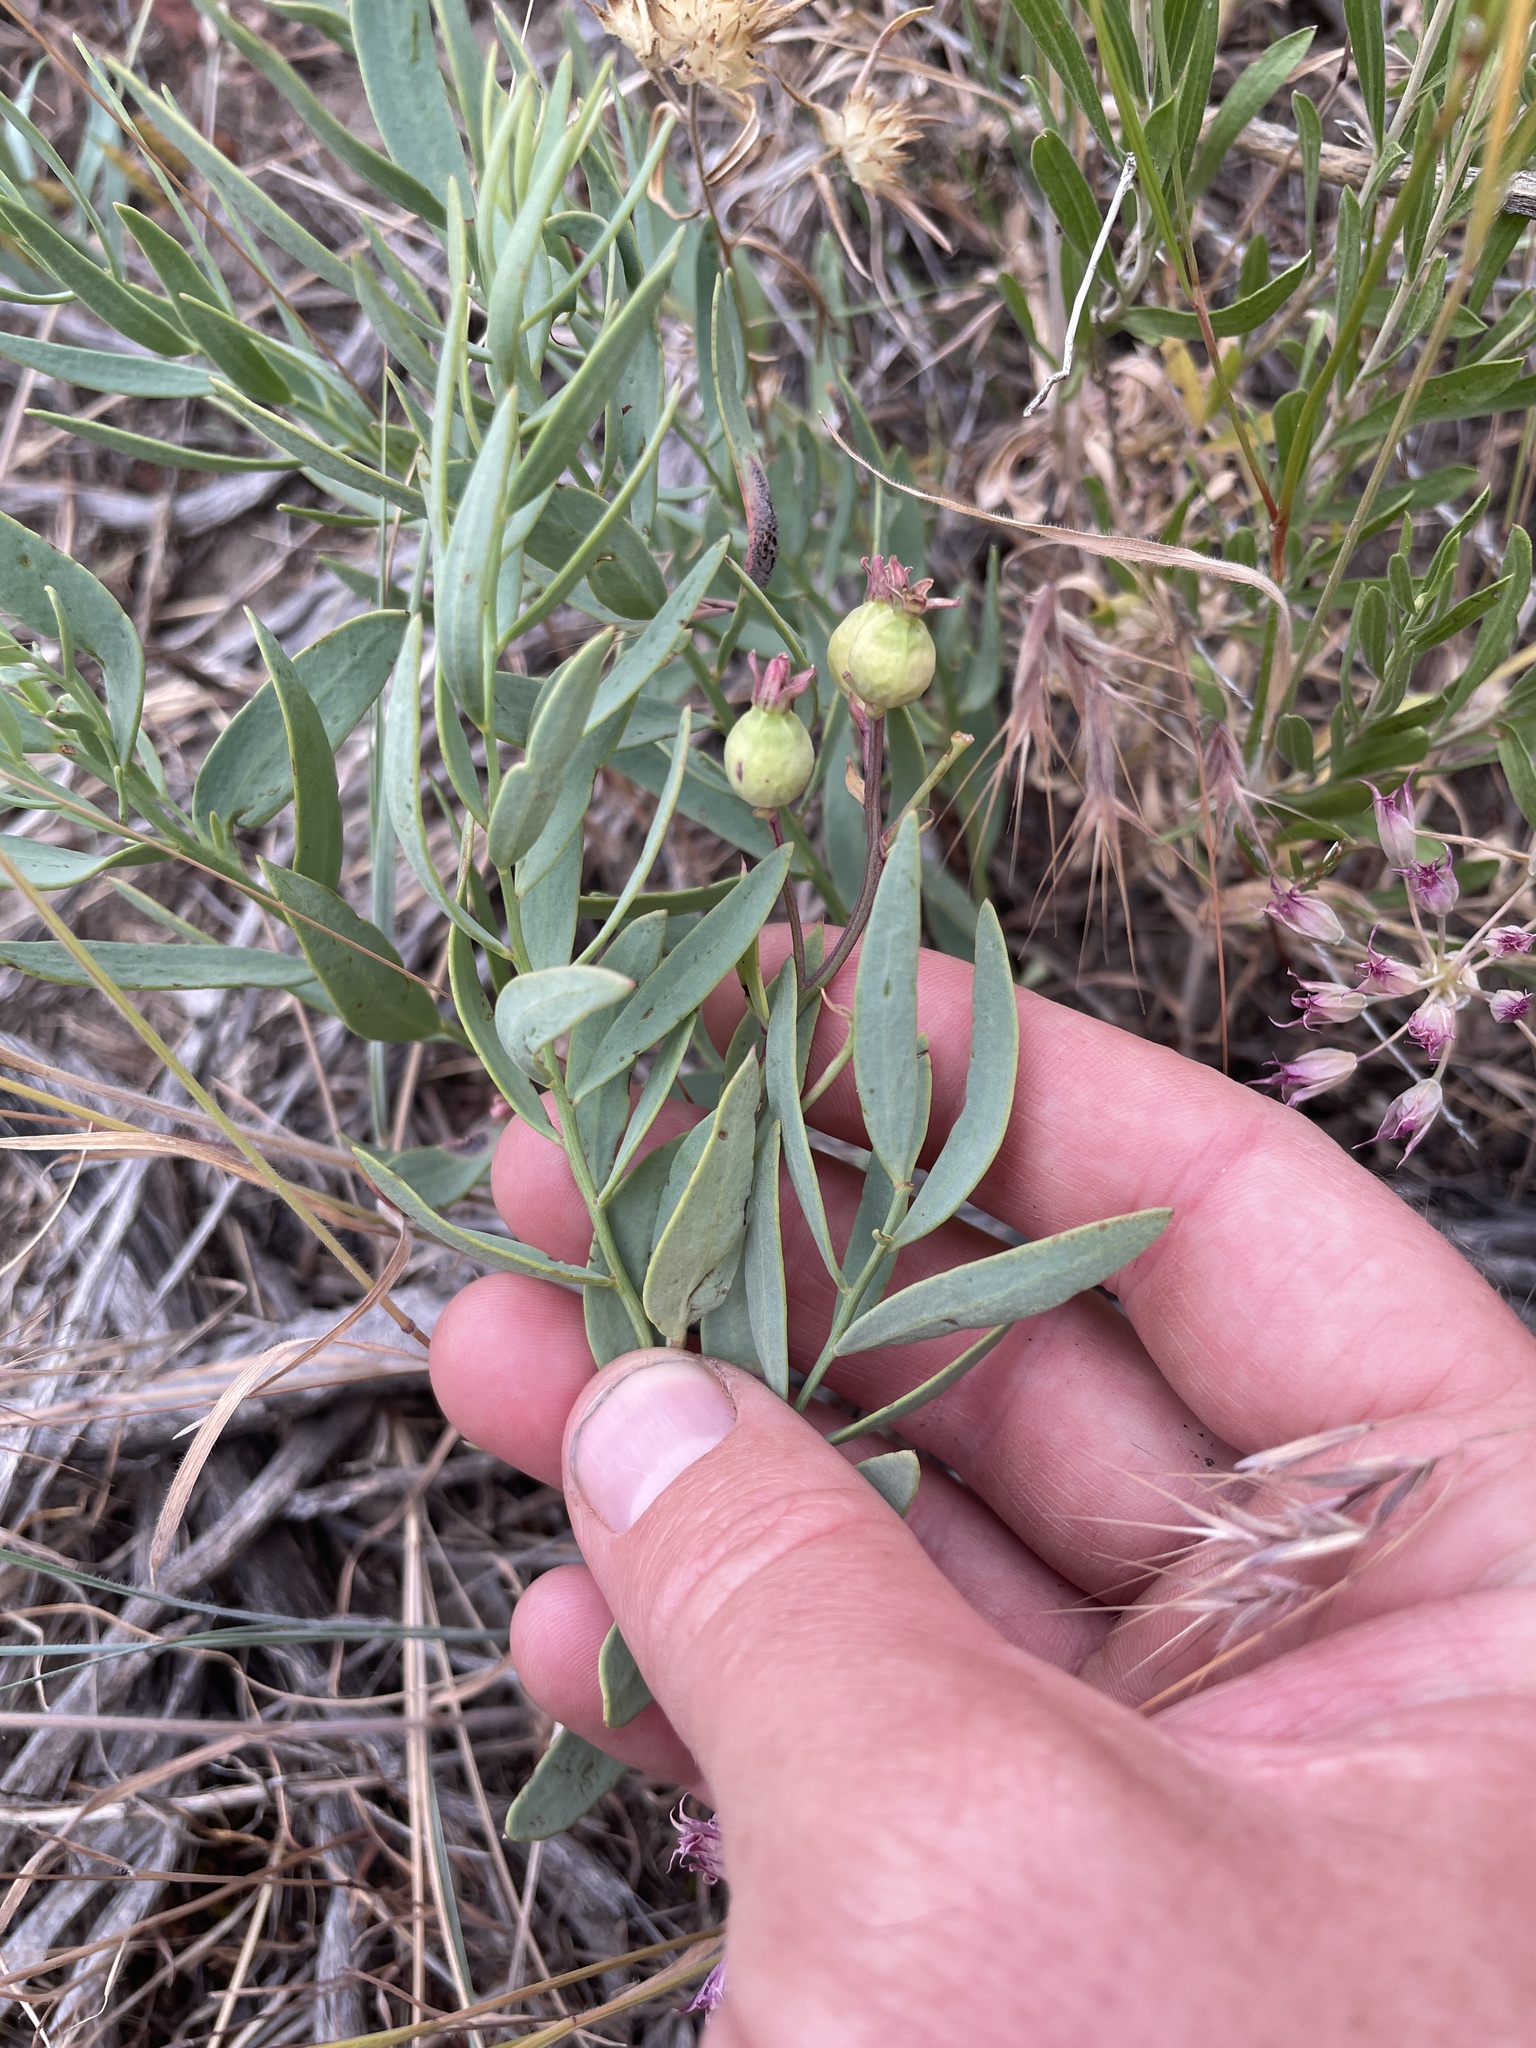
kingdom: Plantae
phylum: Tracheophyta
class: Magnoliopsida
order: Santalales
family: Comandraceae
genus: Comandra
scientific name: Comandra umbellata
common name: Bastard toadflax
